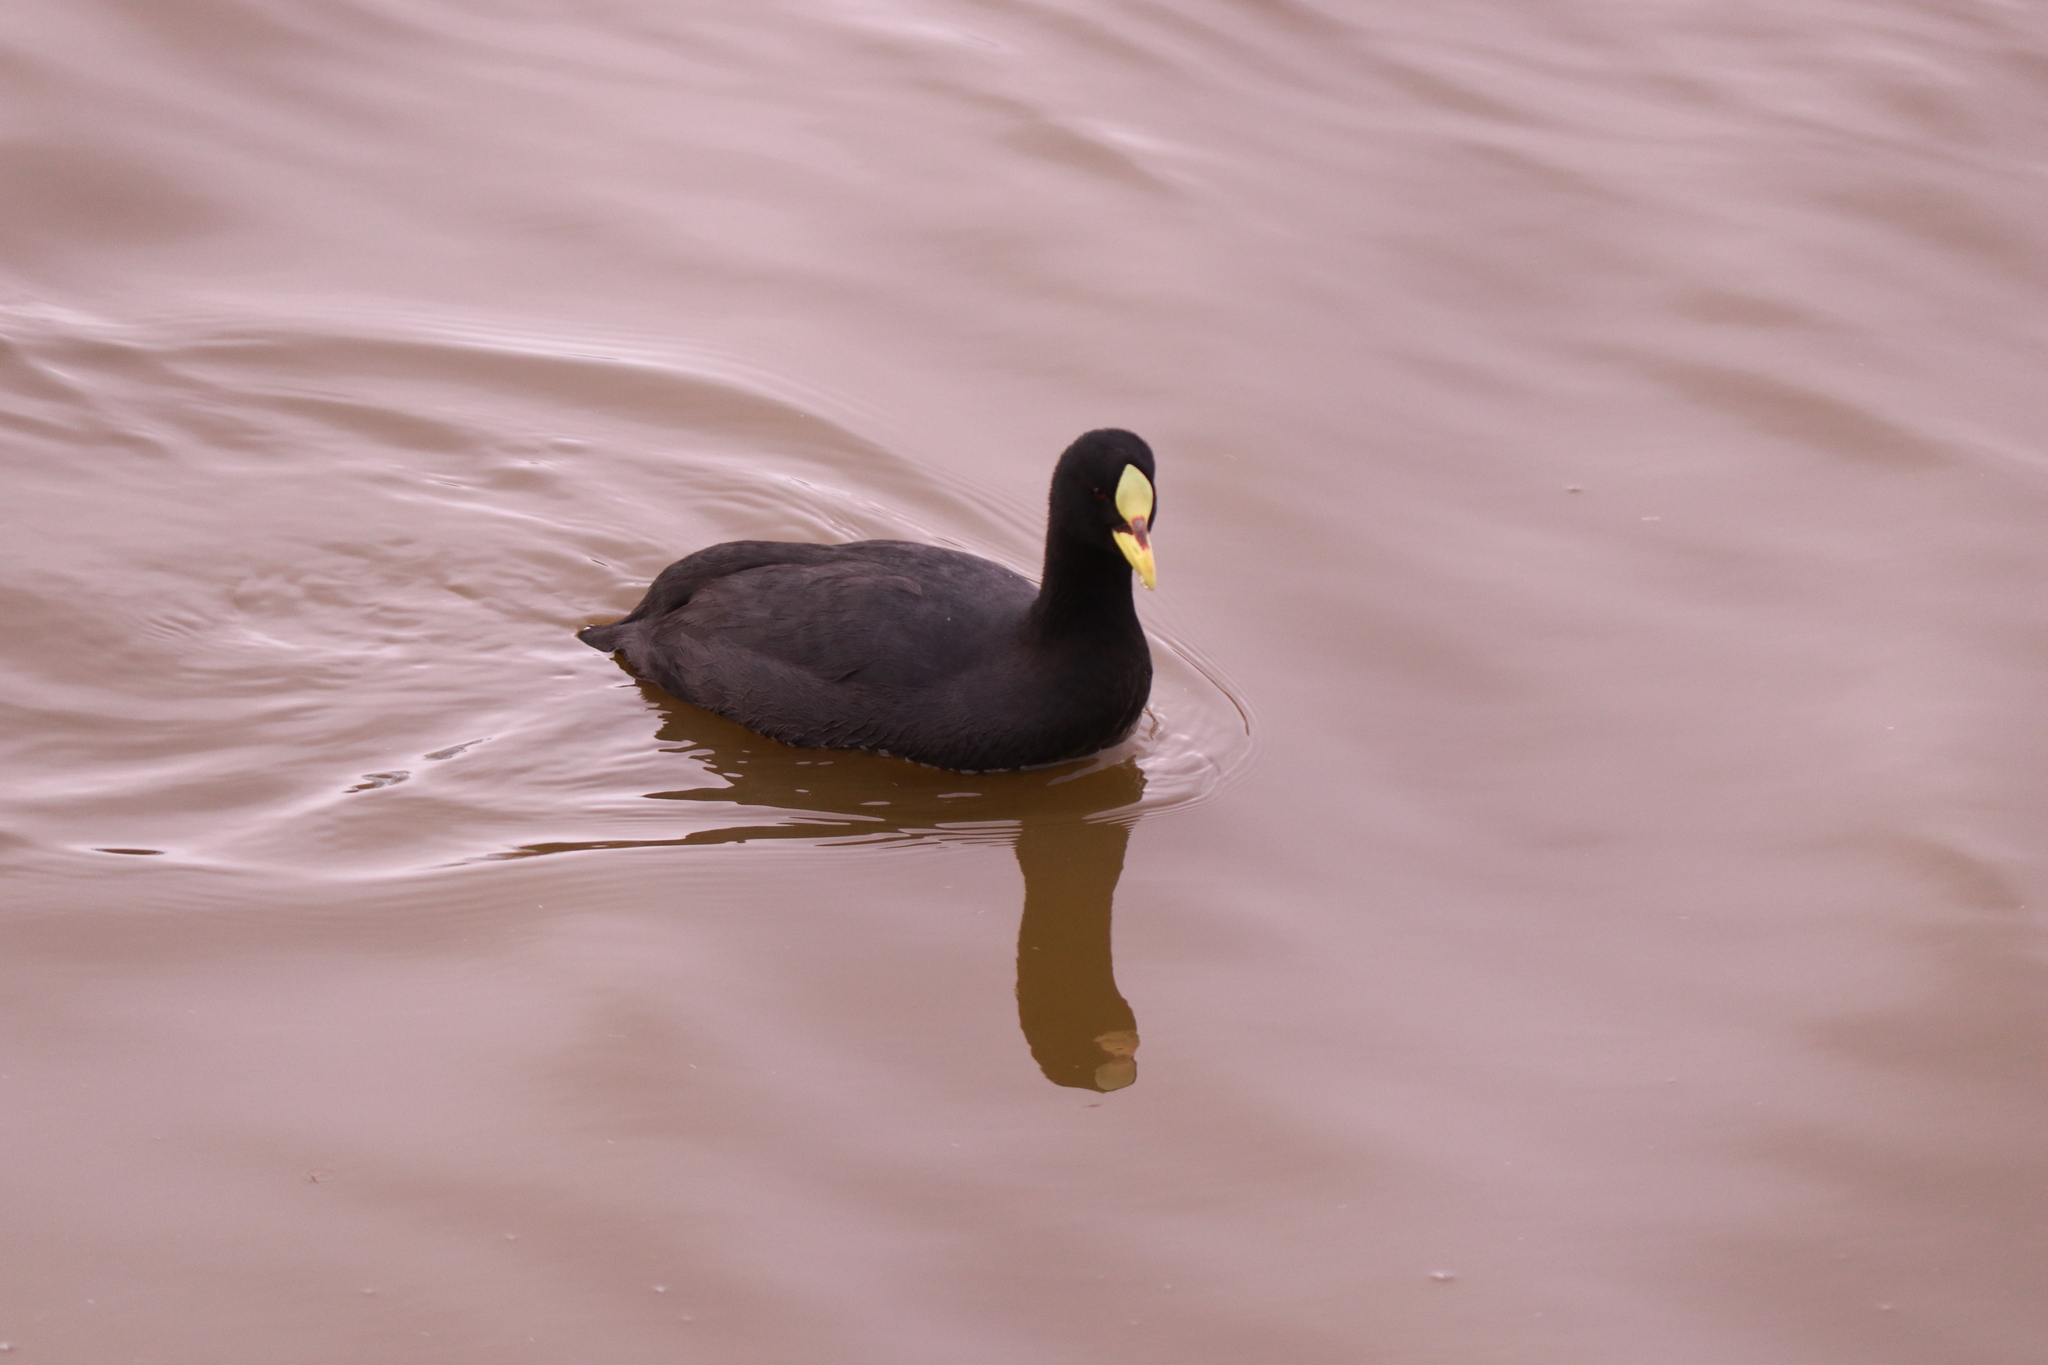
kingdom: Animalia
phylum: Chordata
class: Aves
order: Gruiformes
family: Rallidae
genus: Fulica
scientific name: Fulica armillata
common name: Red-gartered coot
